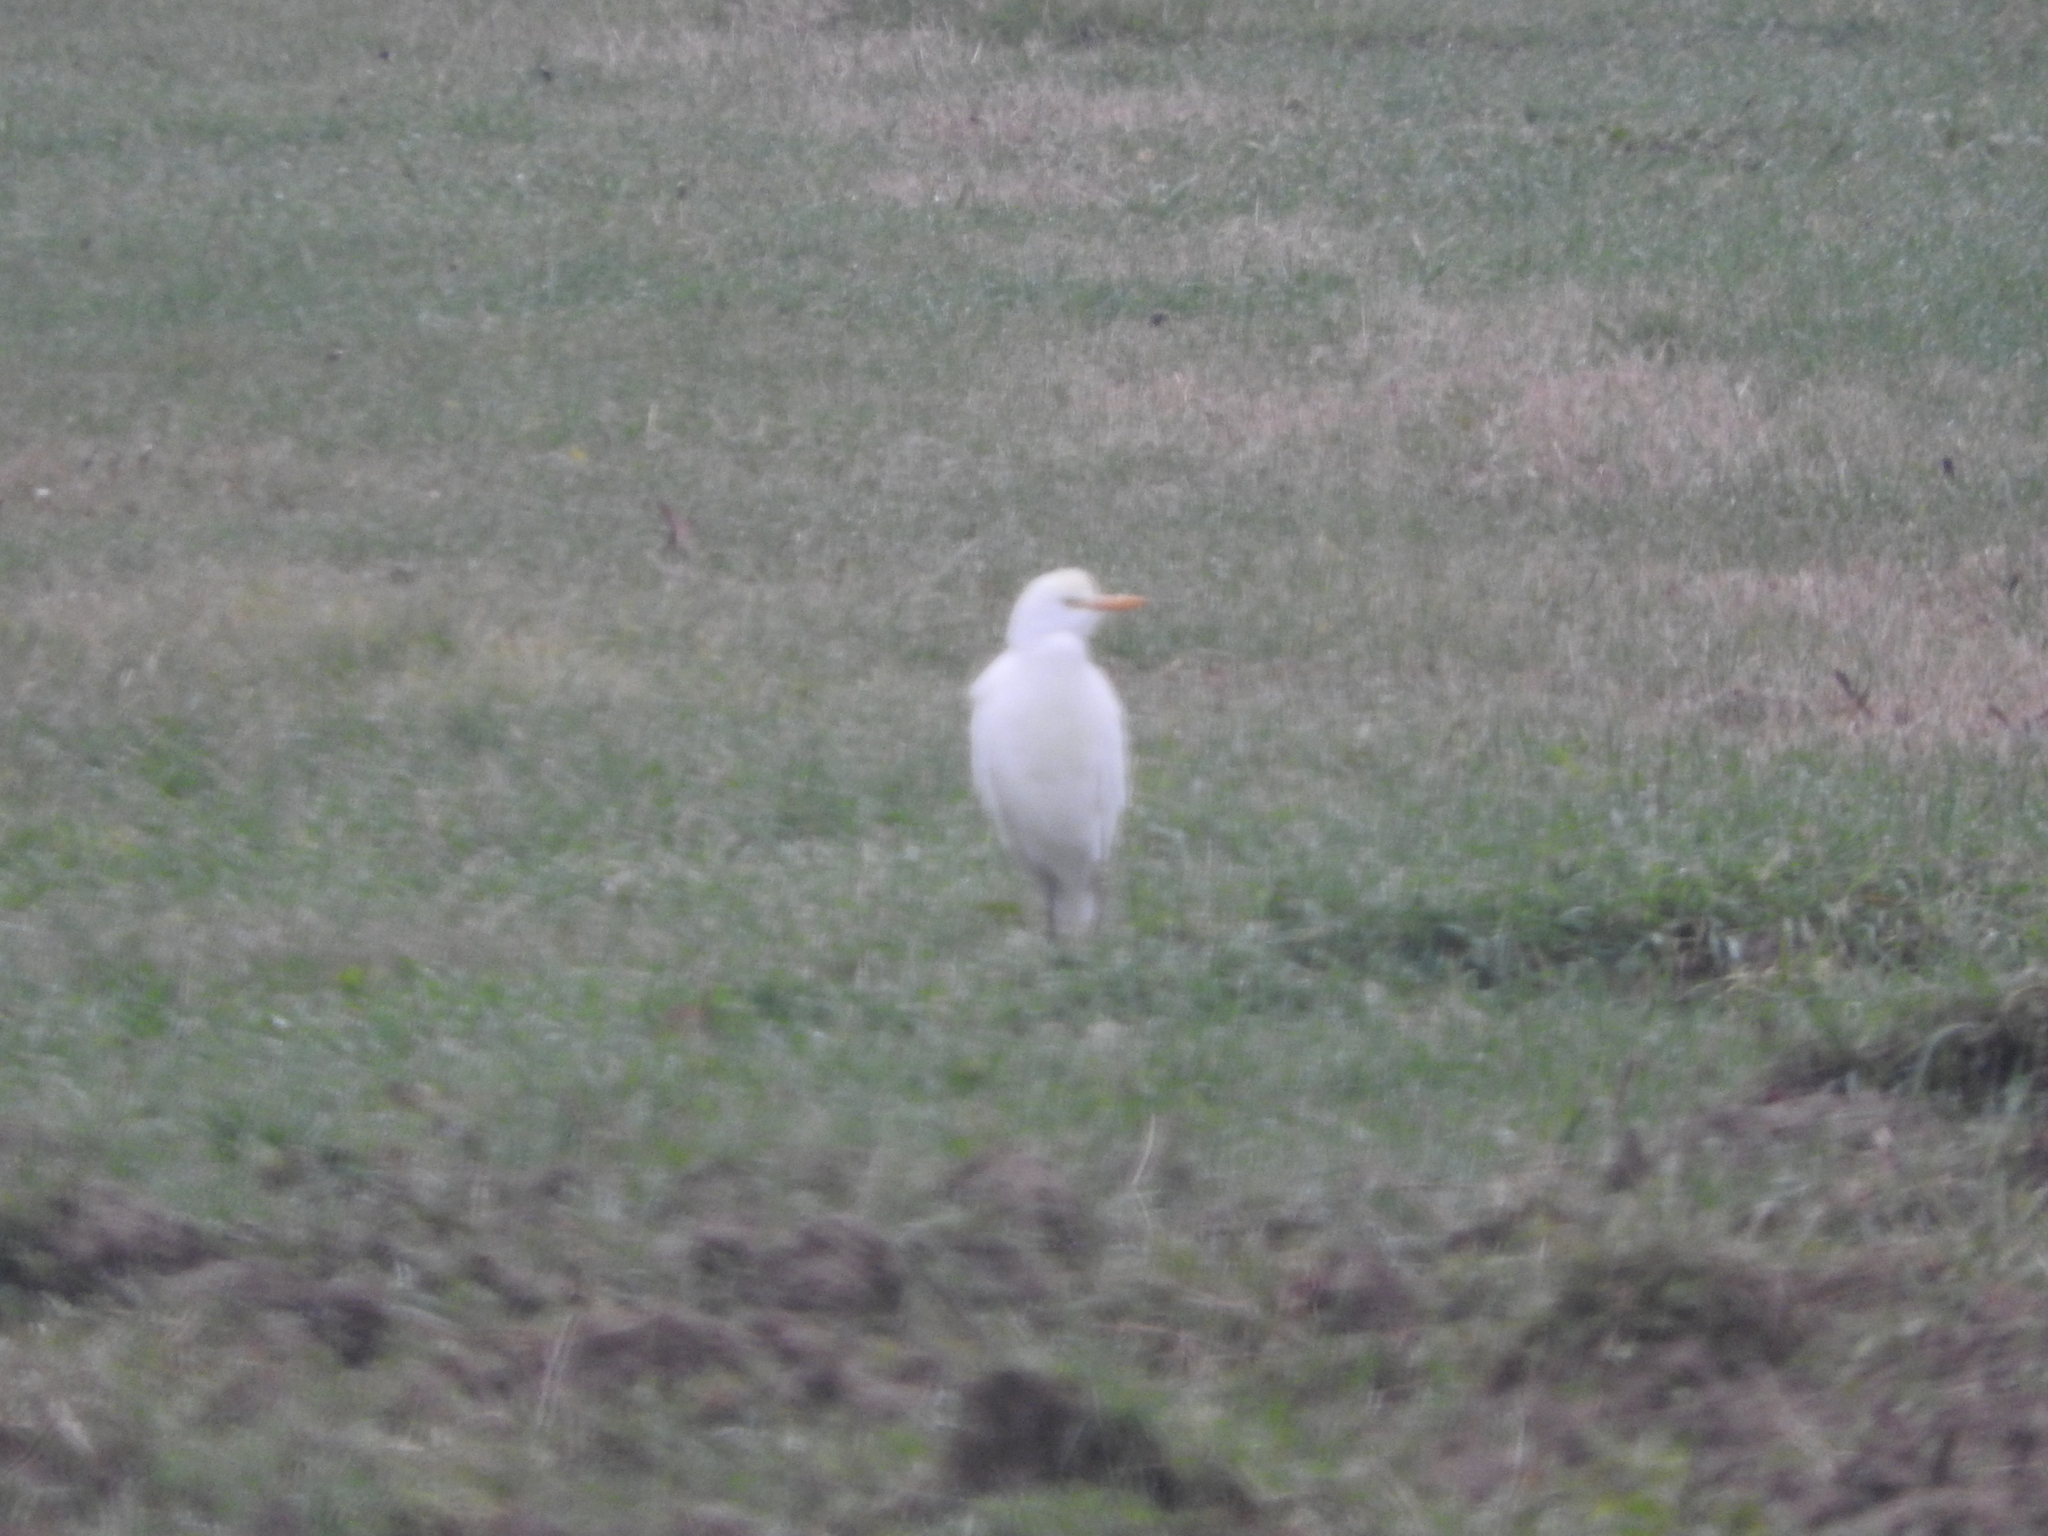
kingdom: Animalia
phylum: Chordata
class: Aves
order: Pelecaniformes
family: Ardeidae
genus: Bubulcus
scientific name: Bubulcus ibis
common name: Cattle egret
